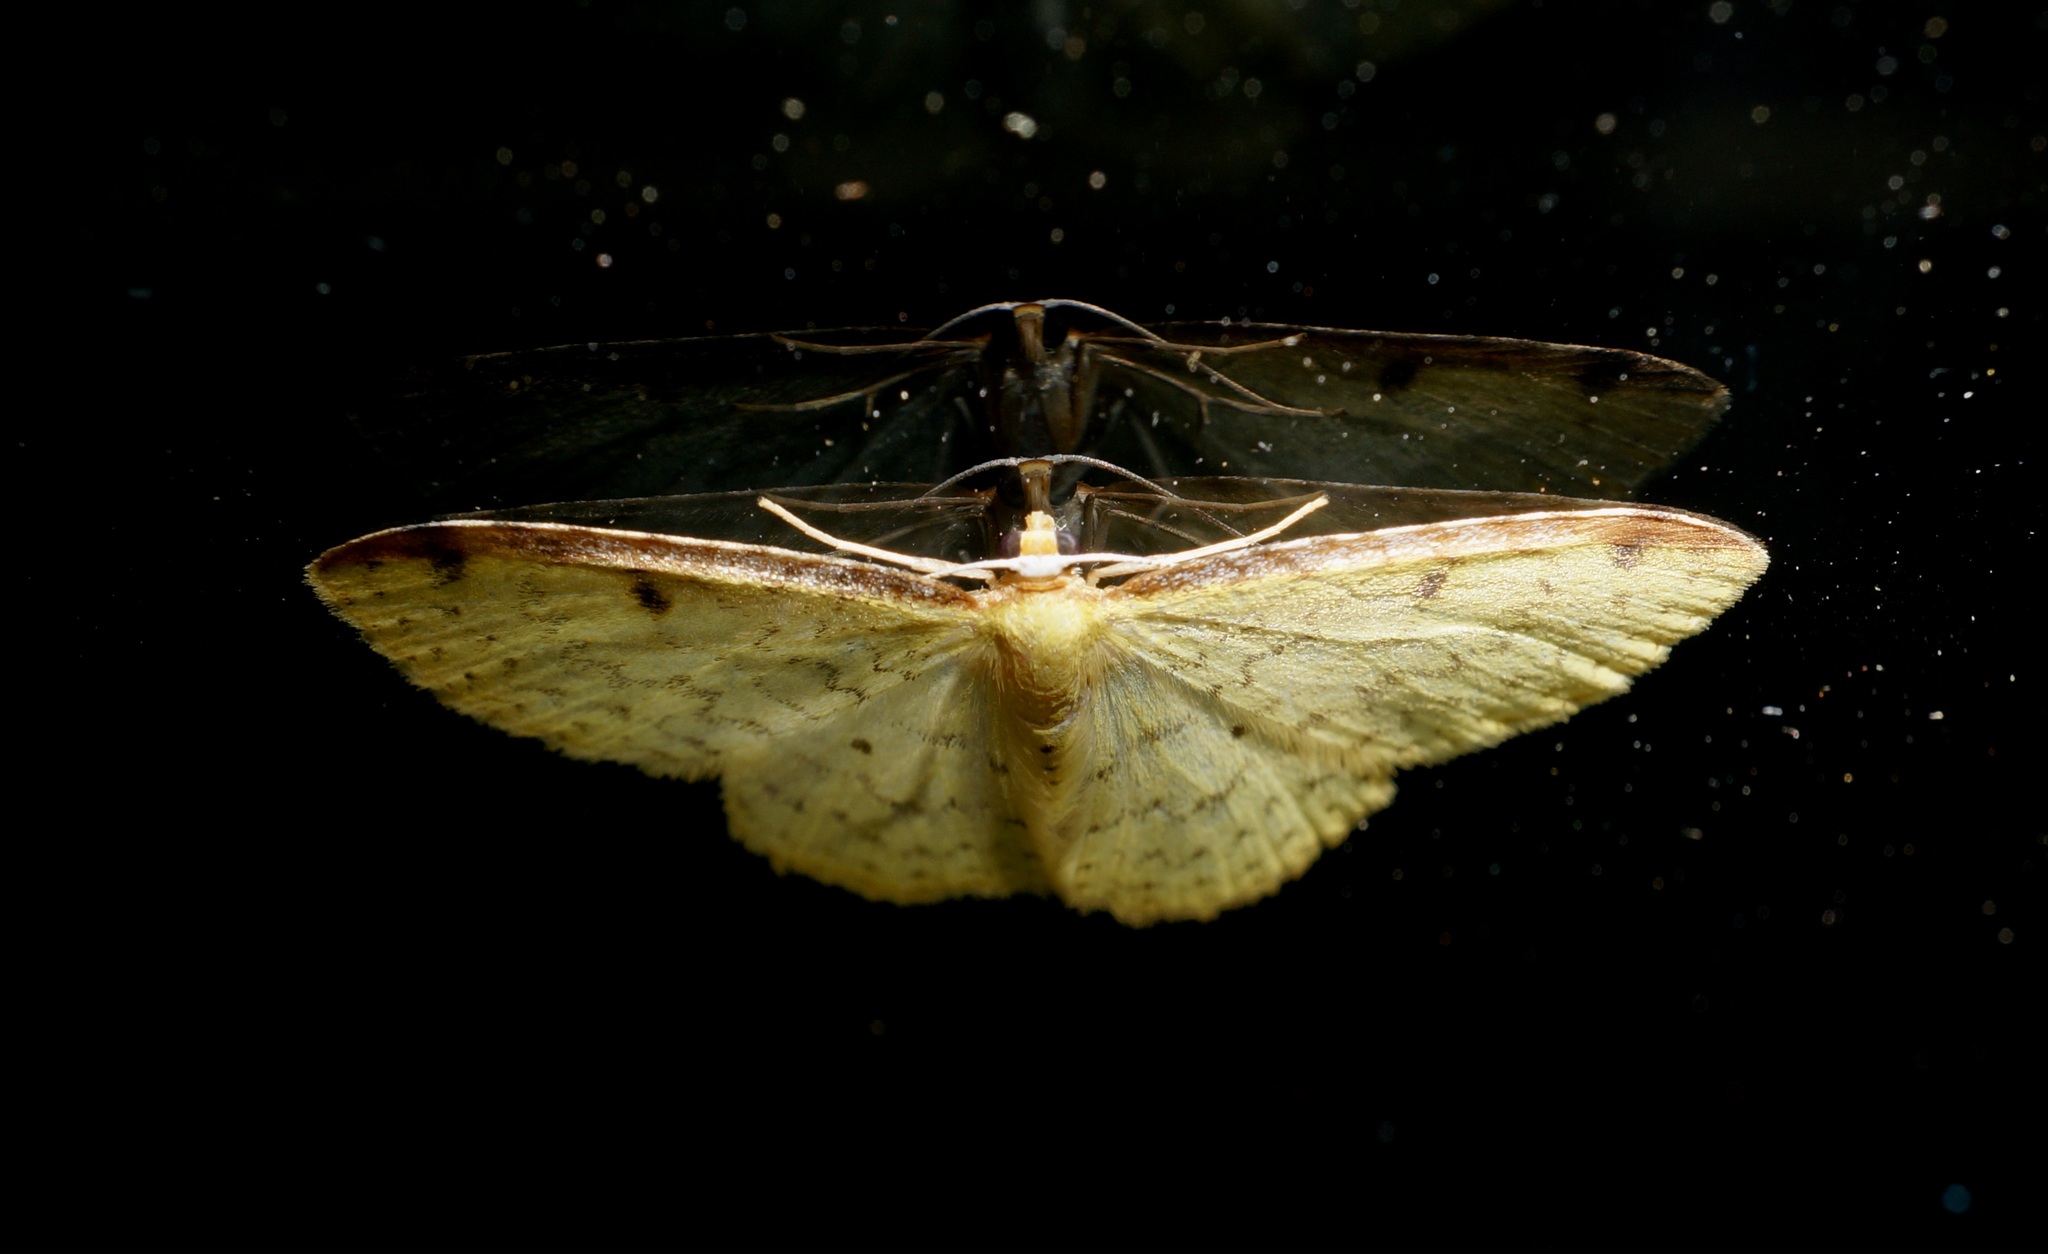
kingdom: Animalia
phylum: Arthropoda
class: Insecta
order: Lepidoptera
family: Geometridae
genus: Epiphryne
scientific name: Epiphryne undosata
